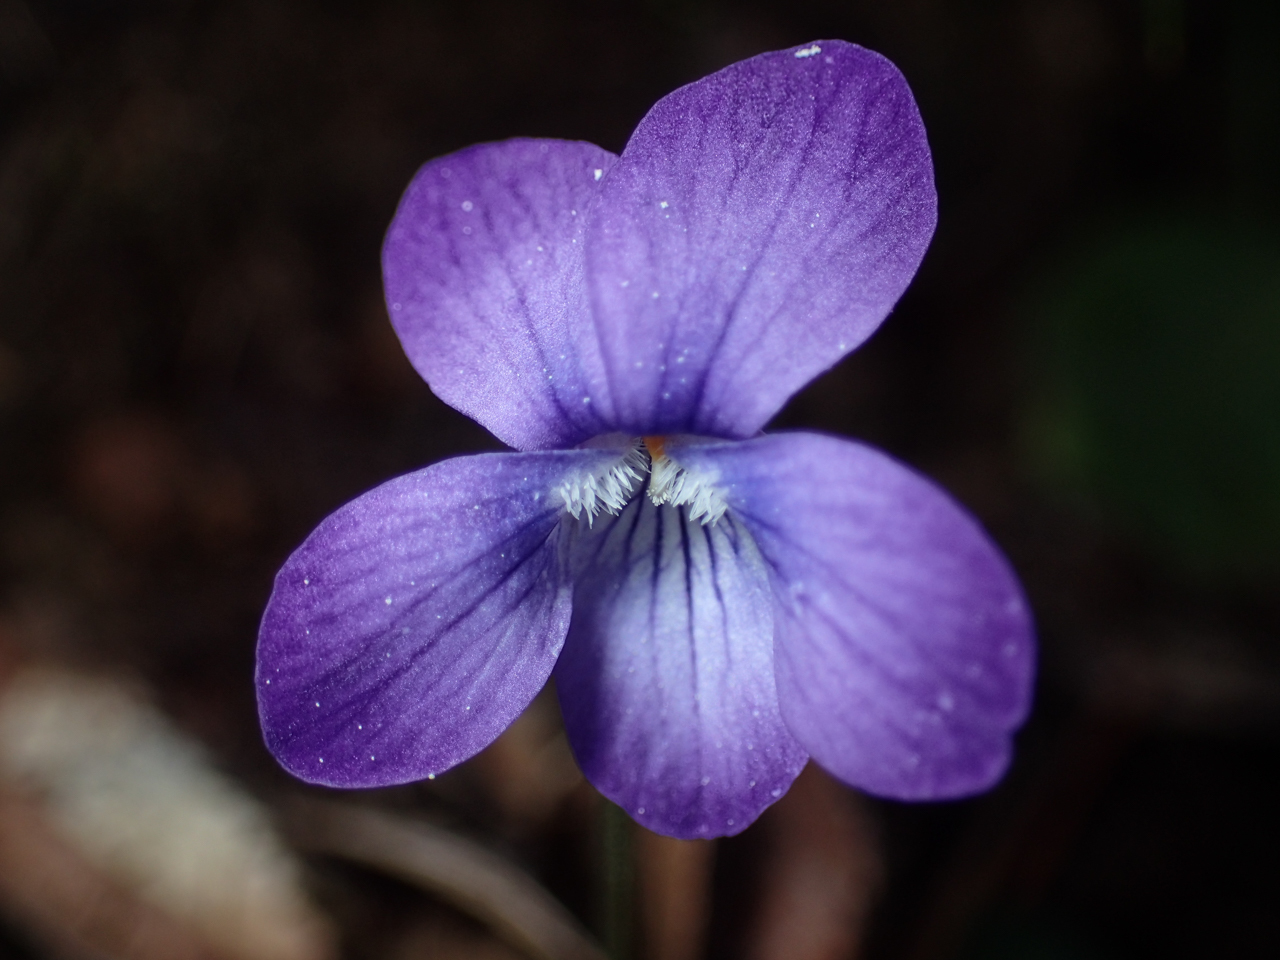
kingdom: Plantae
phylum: Tracheophyta
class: Magnoliopsida
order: Malpighiales
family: Violaceae
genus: Viola
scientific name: Viola sororia
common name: Dooryard violet
